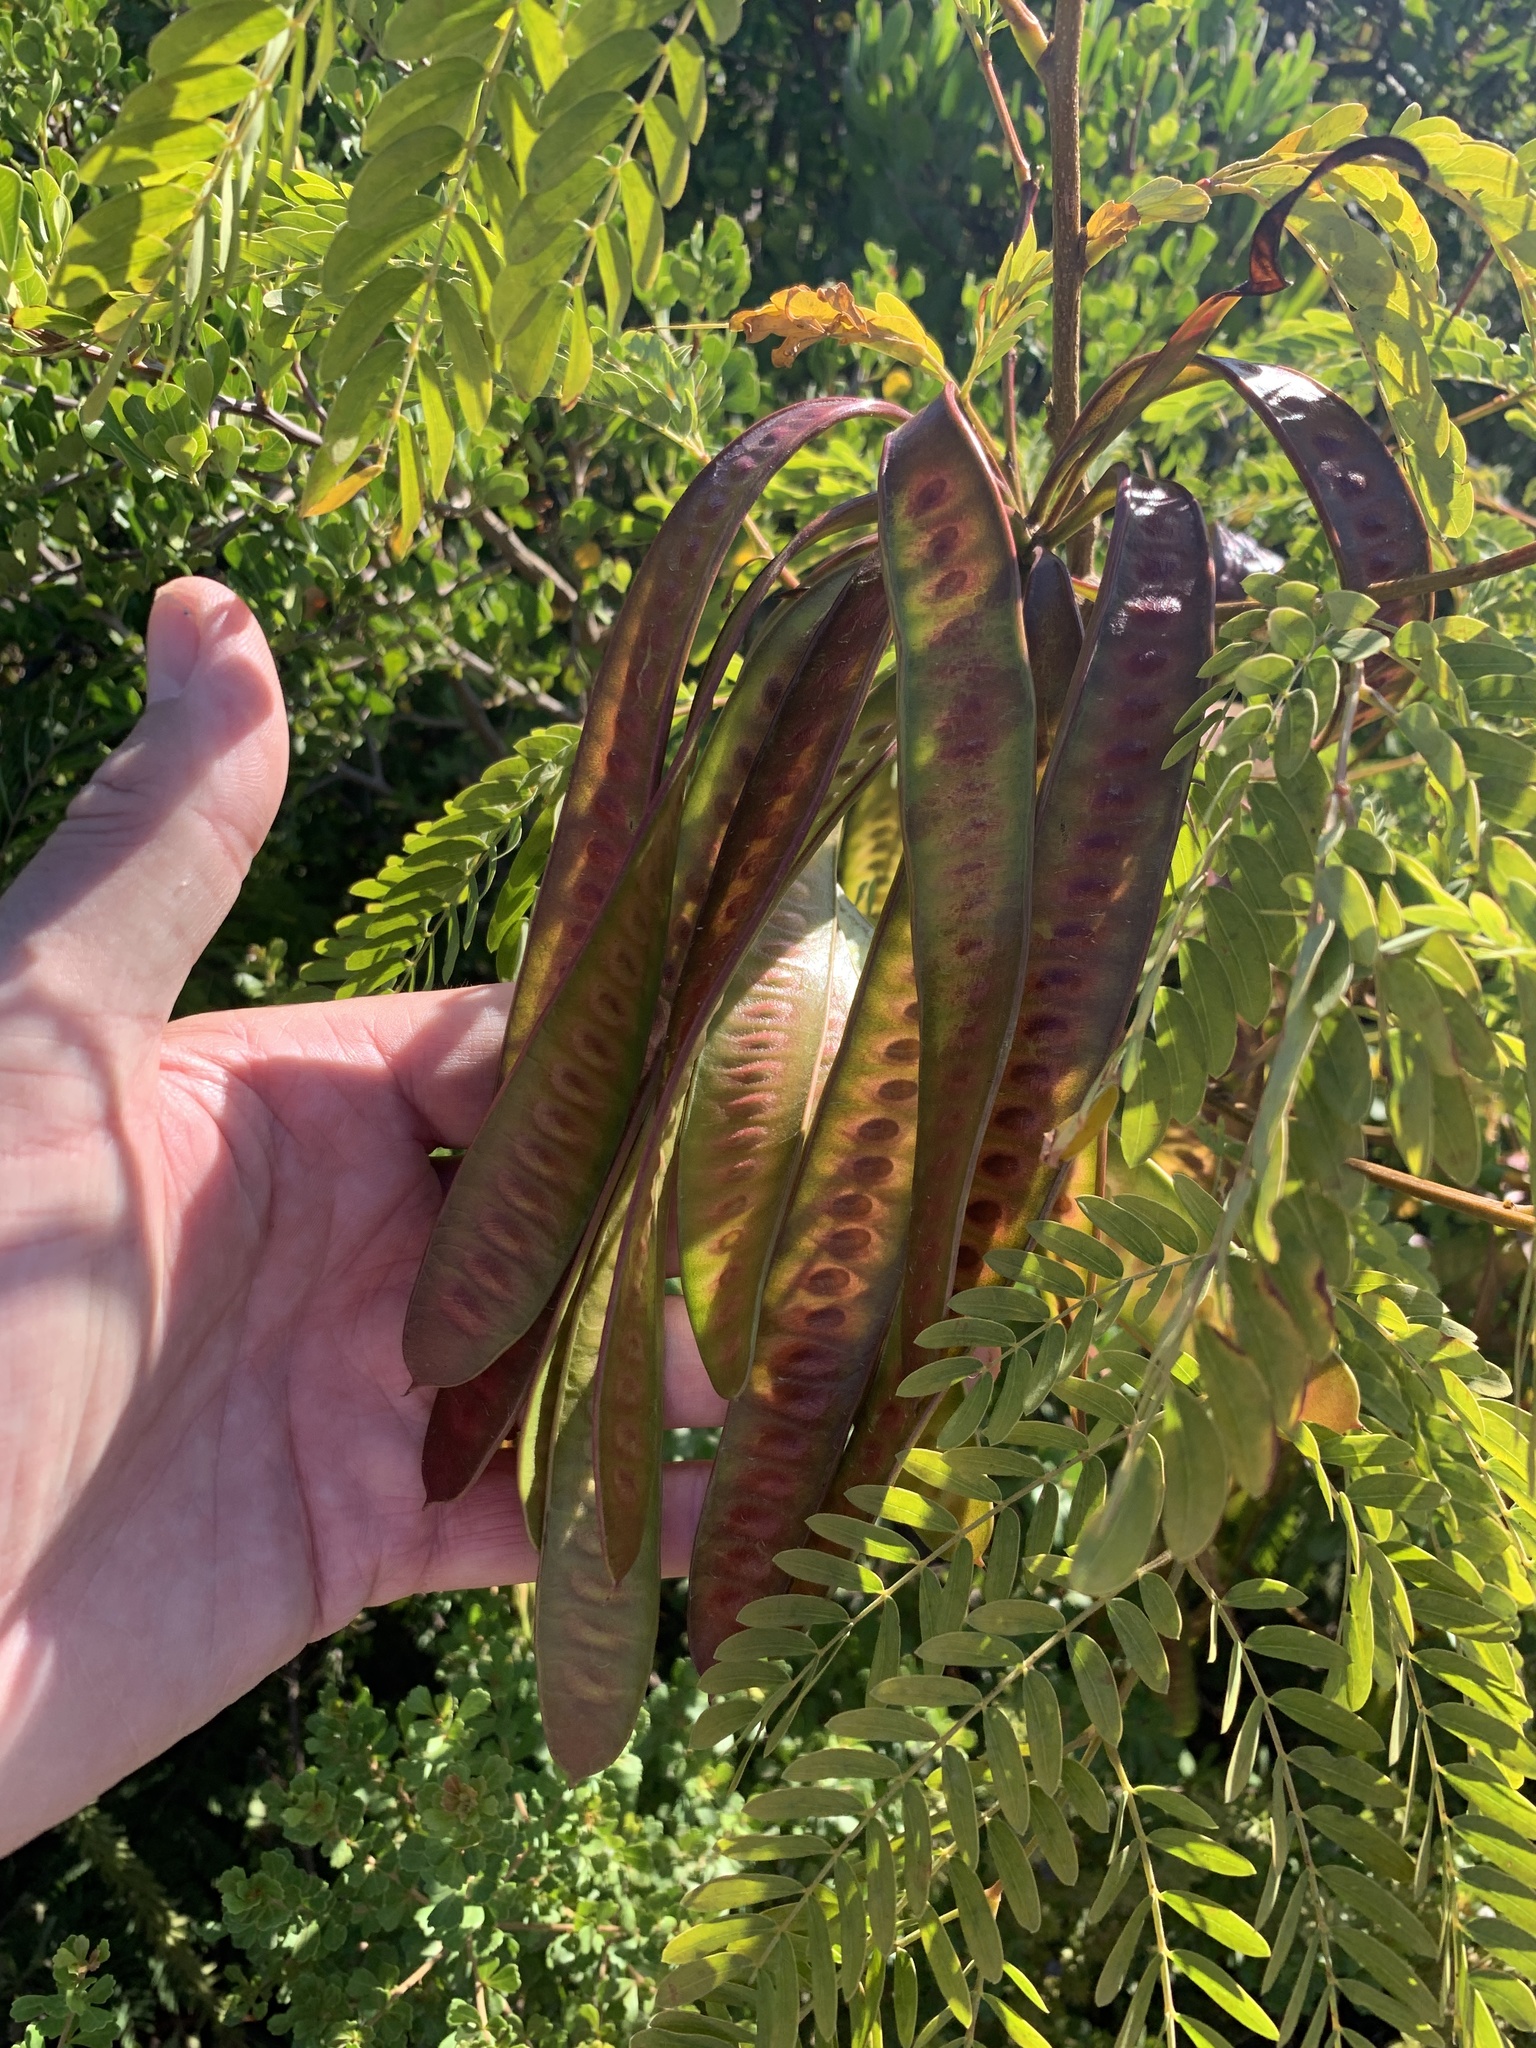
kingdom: Plantae
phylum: Tracheophyta
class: Magnoliopsida
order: Fabales
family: Fabaceae
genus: Leucaena
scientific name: Leucaena leucocephala
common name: White leadtree
